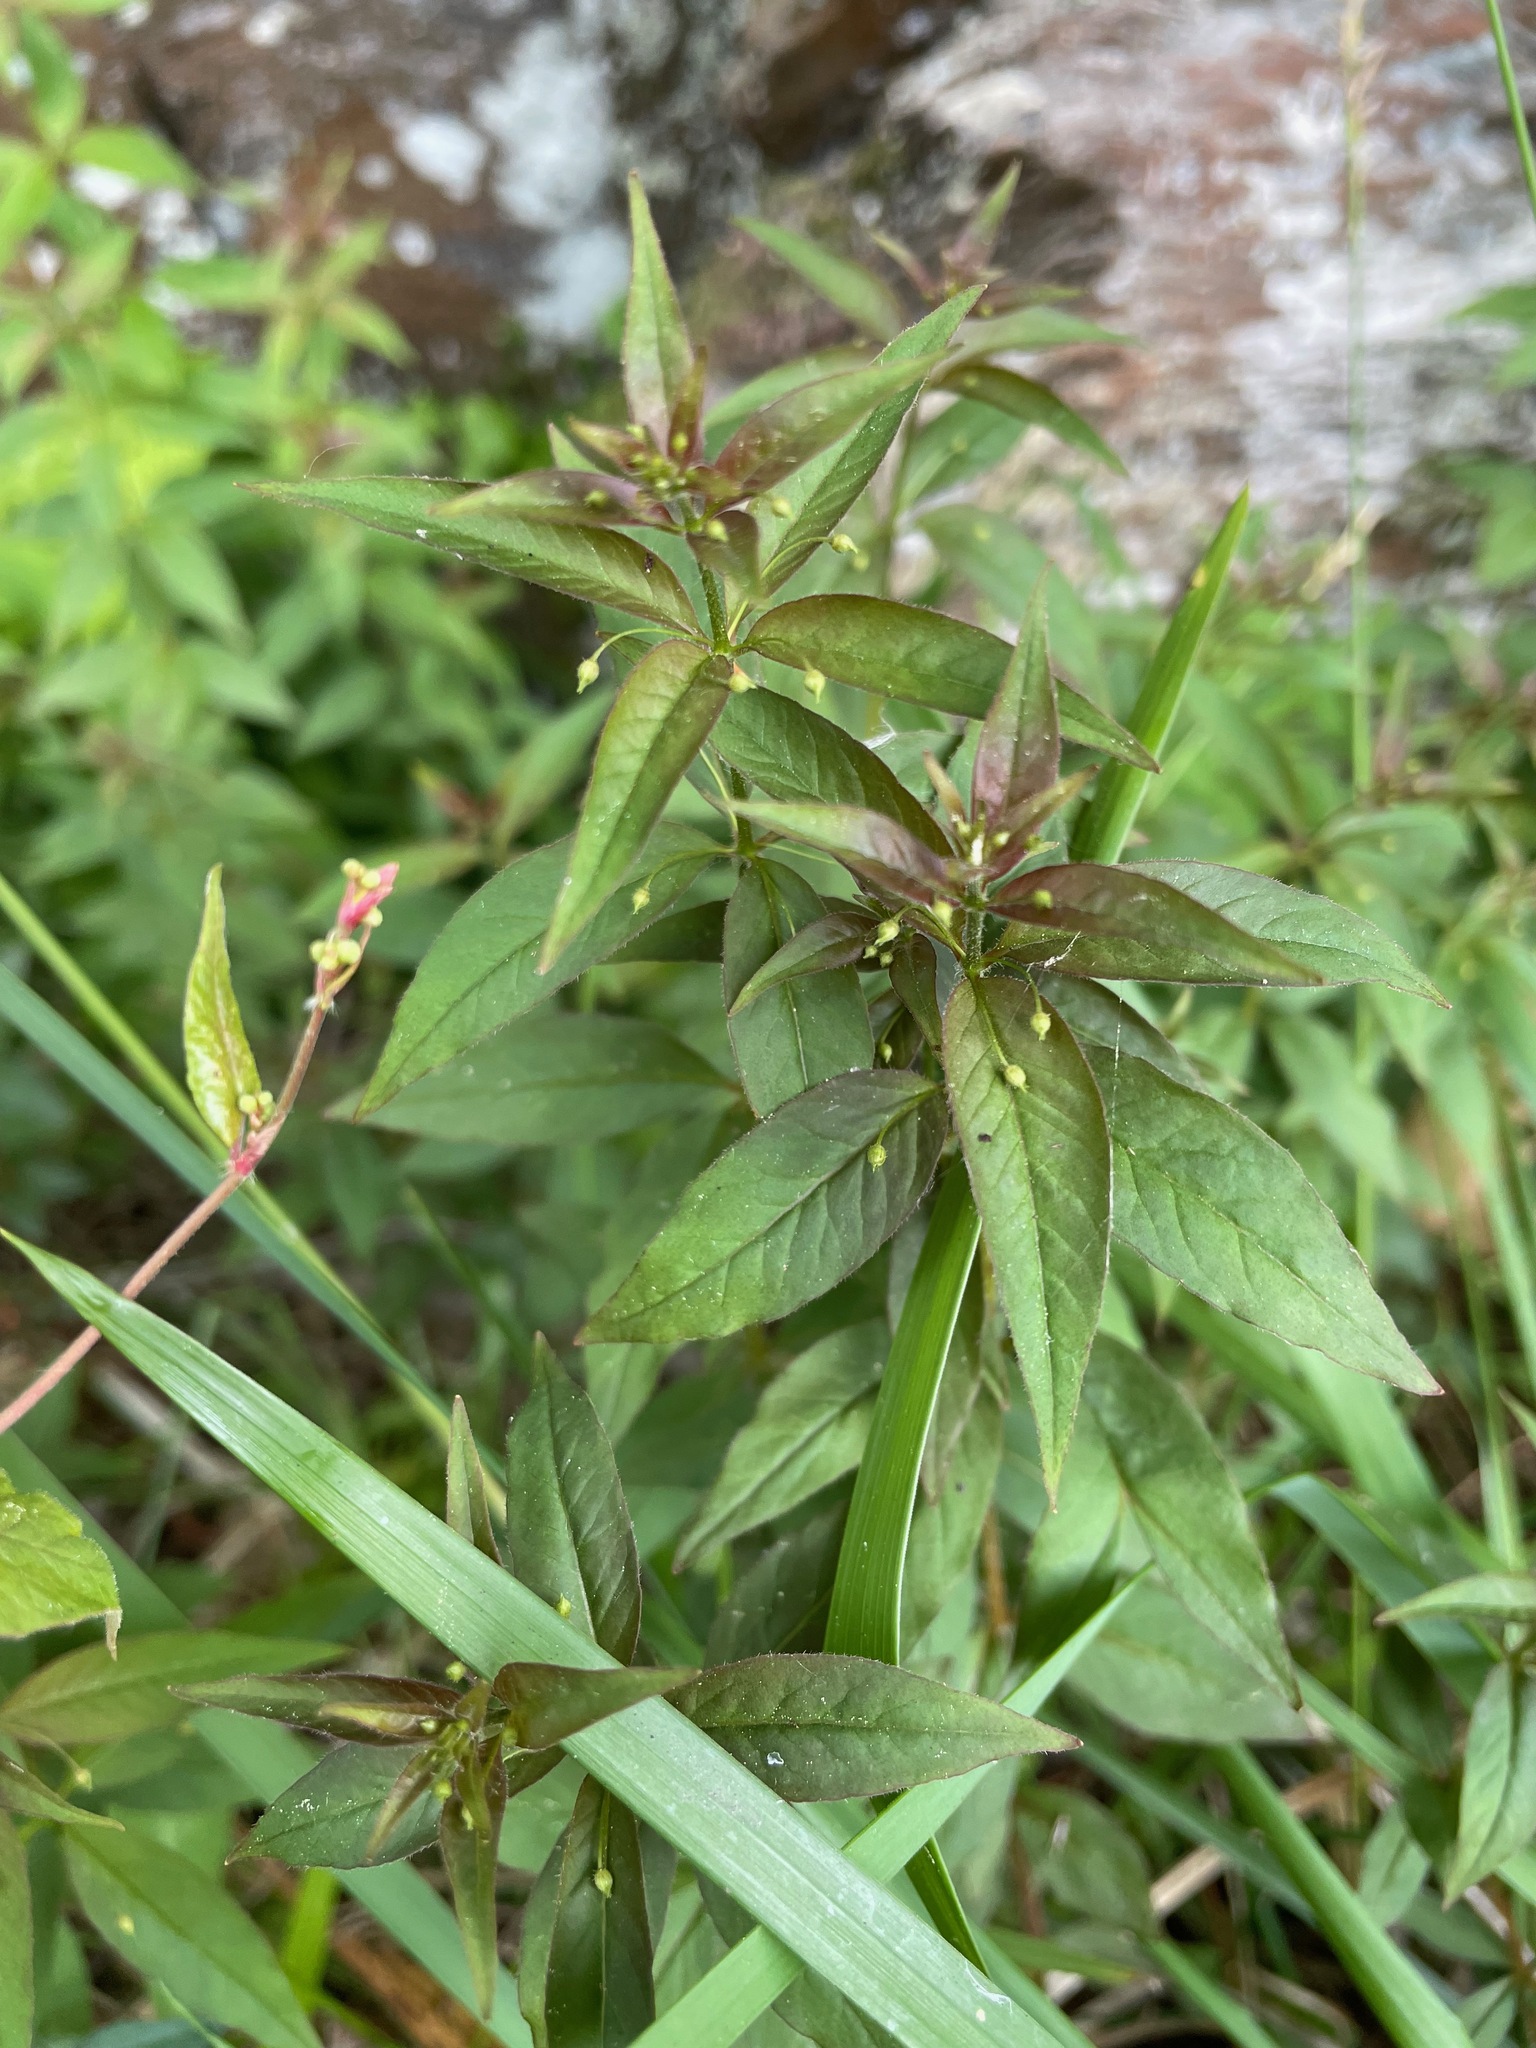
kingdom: Plantae
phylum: Tracheophyta
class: Magnoliopsida
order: Ericales
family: Primulaceae
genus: Lysimachia
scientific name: Lysimachia quadrifolia
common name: Whorled loosestrife
